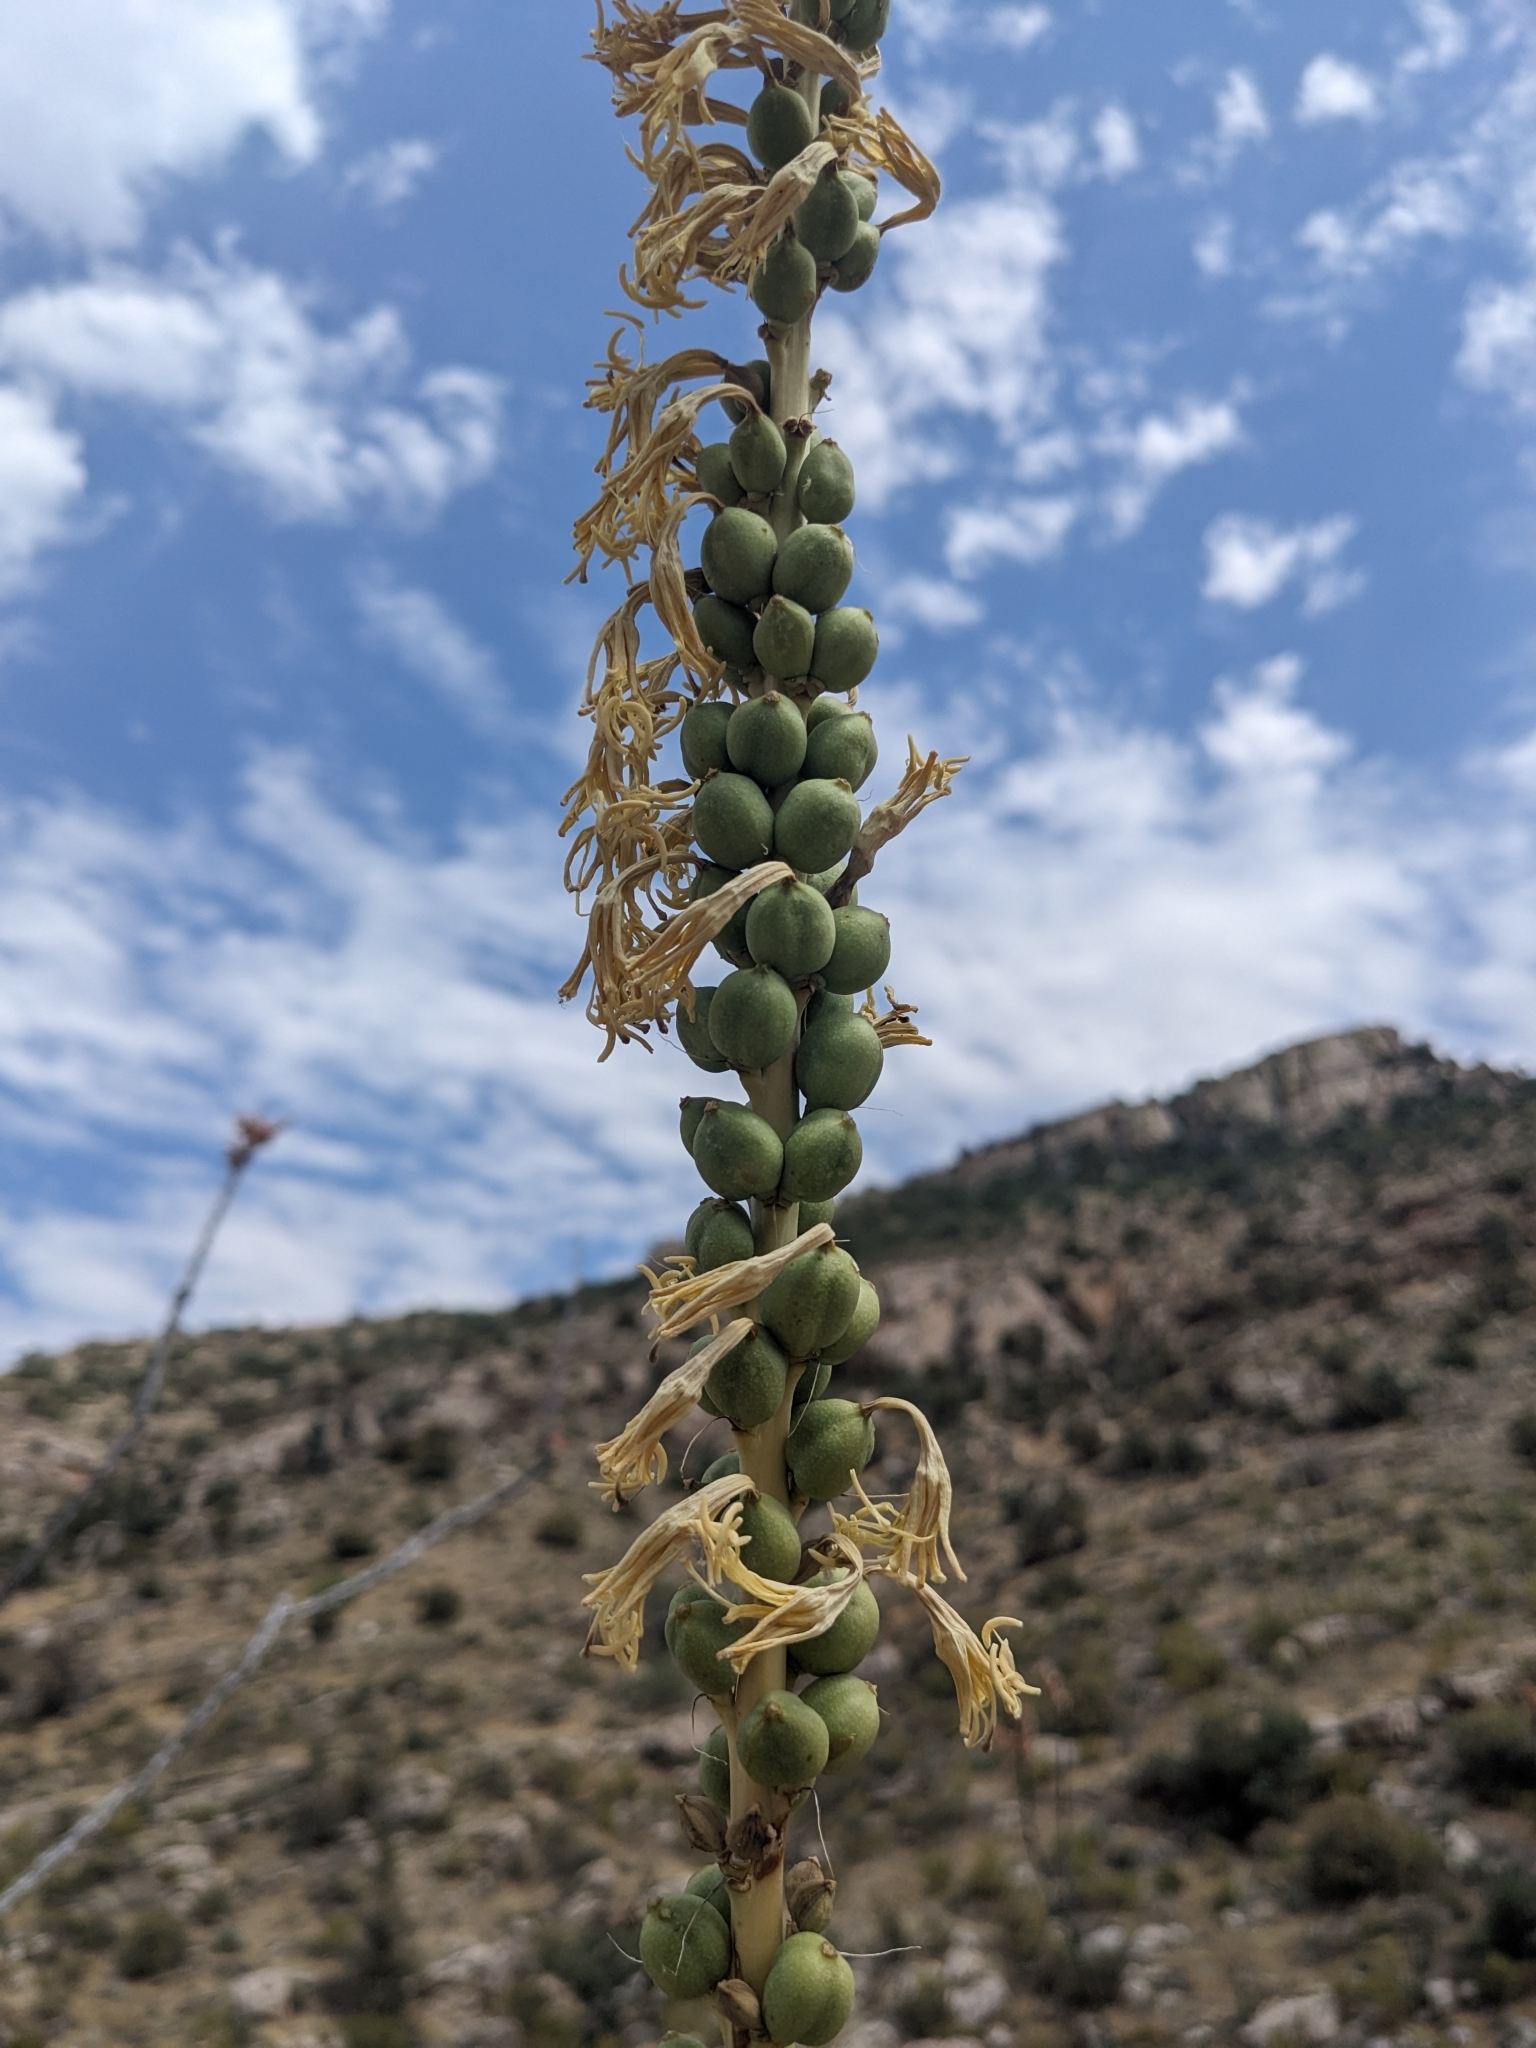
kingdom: Plantae
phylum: Tracheophyta
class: Liliopsida
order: Asparagales
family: Asparagaceae
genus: Agave
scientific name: Agave schottii
